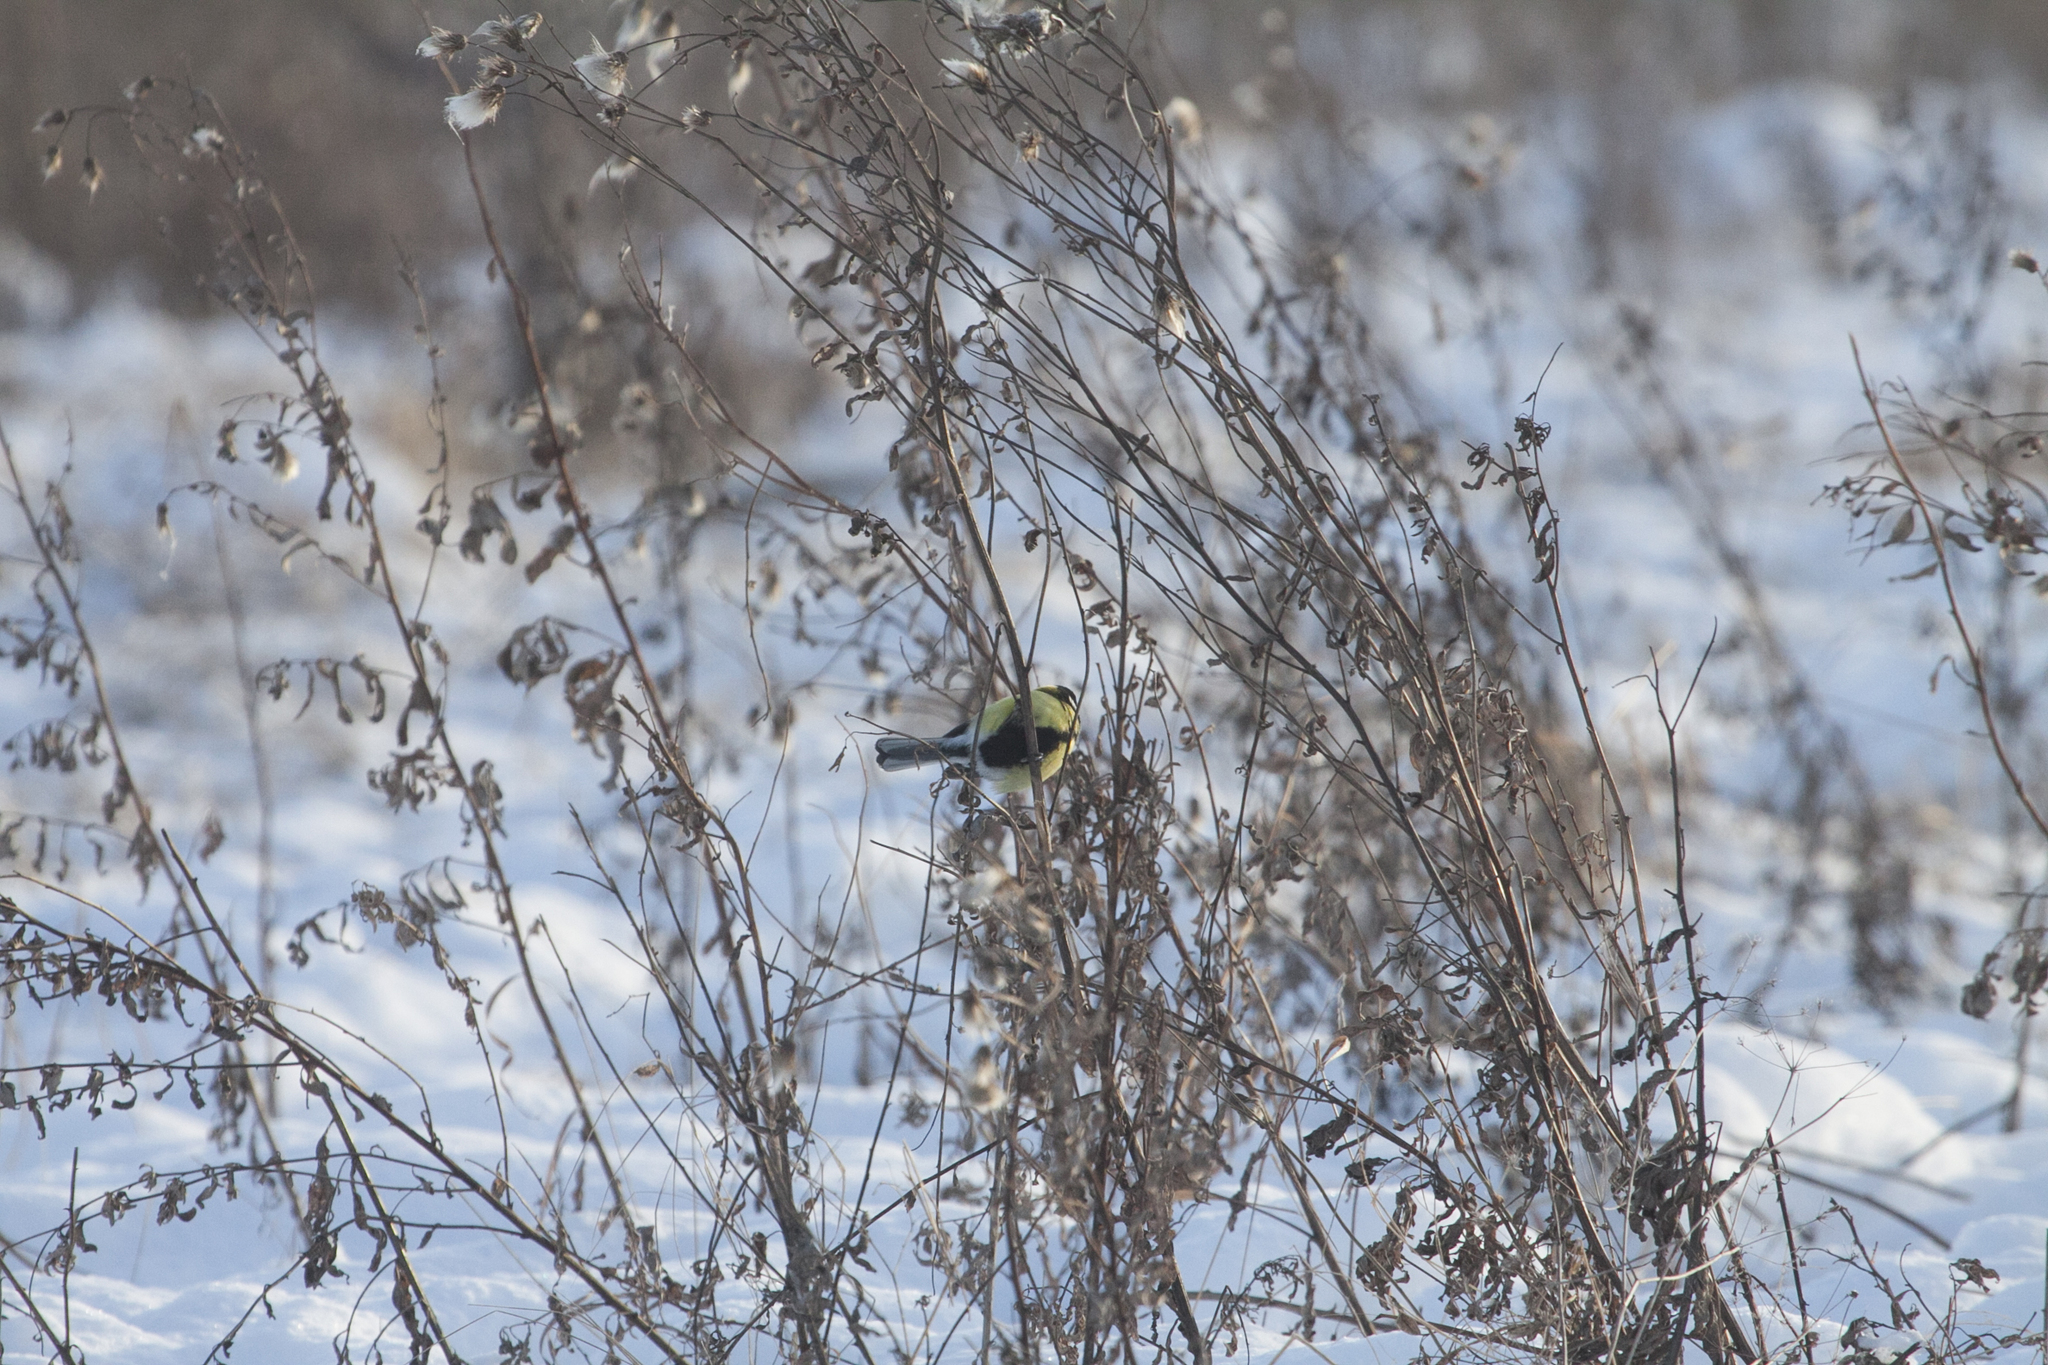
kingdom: Animalia
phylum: Chordata
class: Aves
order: Passeriformes
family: Paridae
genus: Parus
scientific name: Parus major
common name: Great tit
